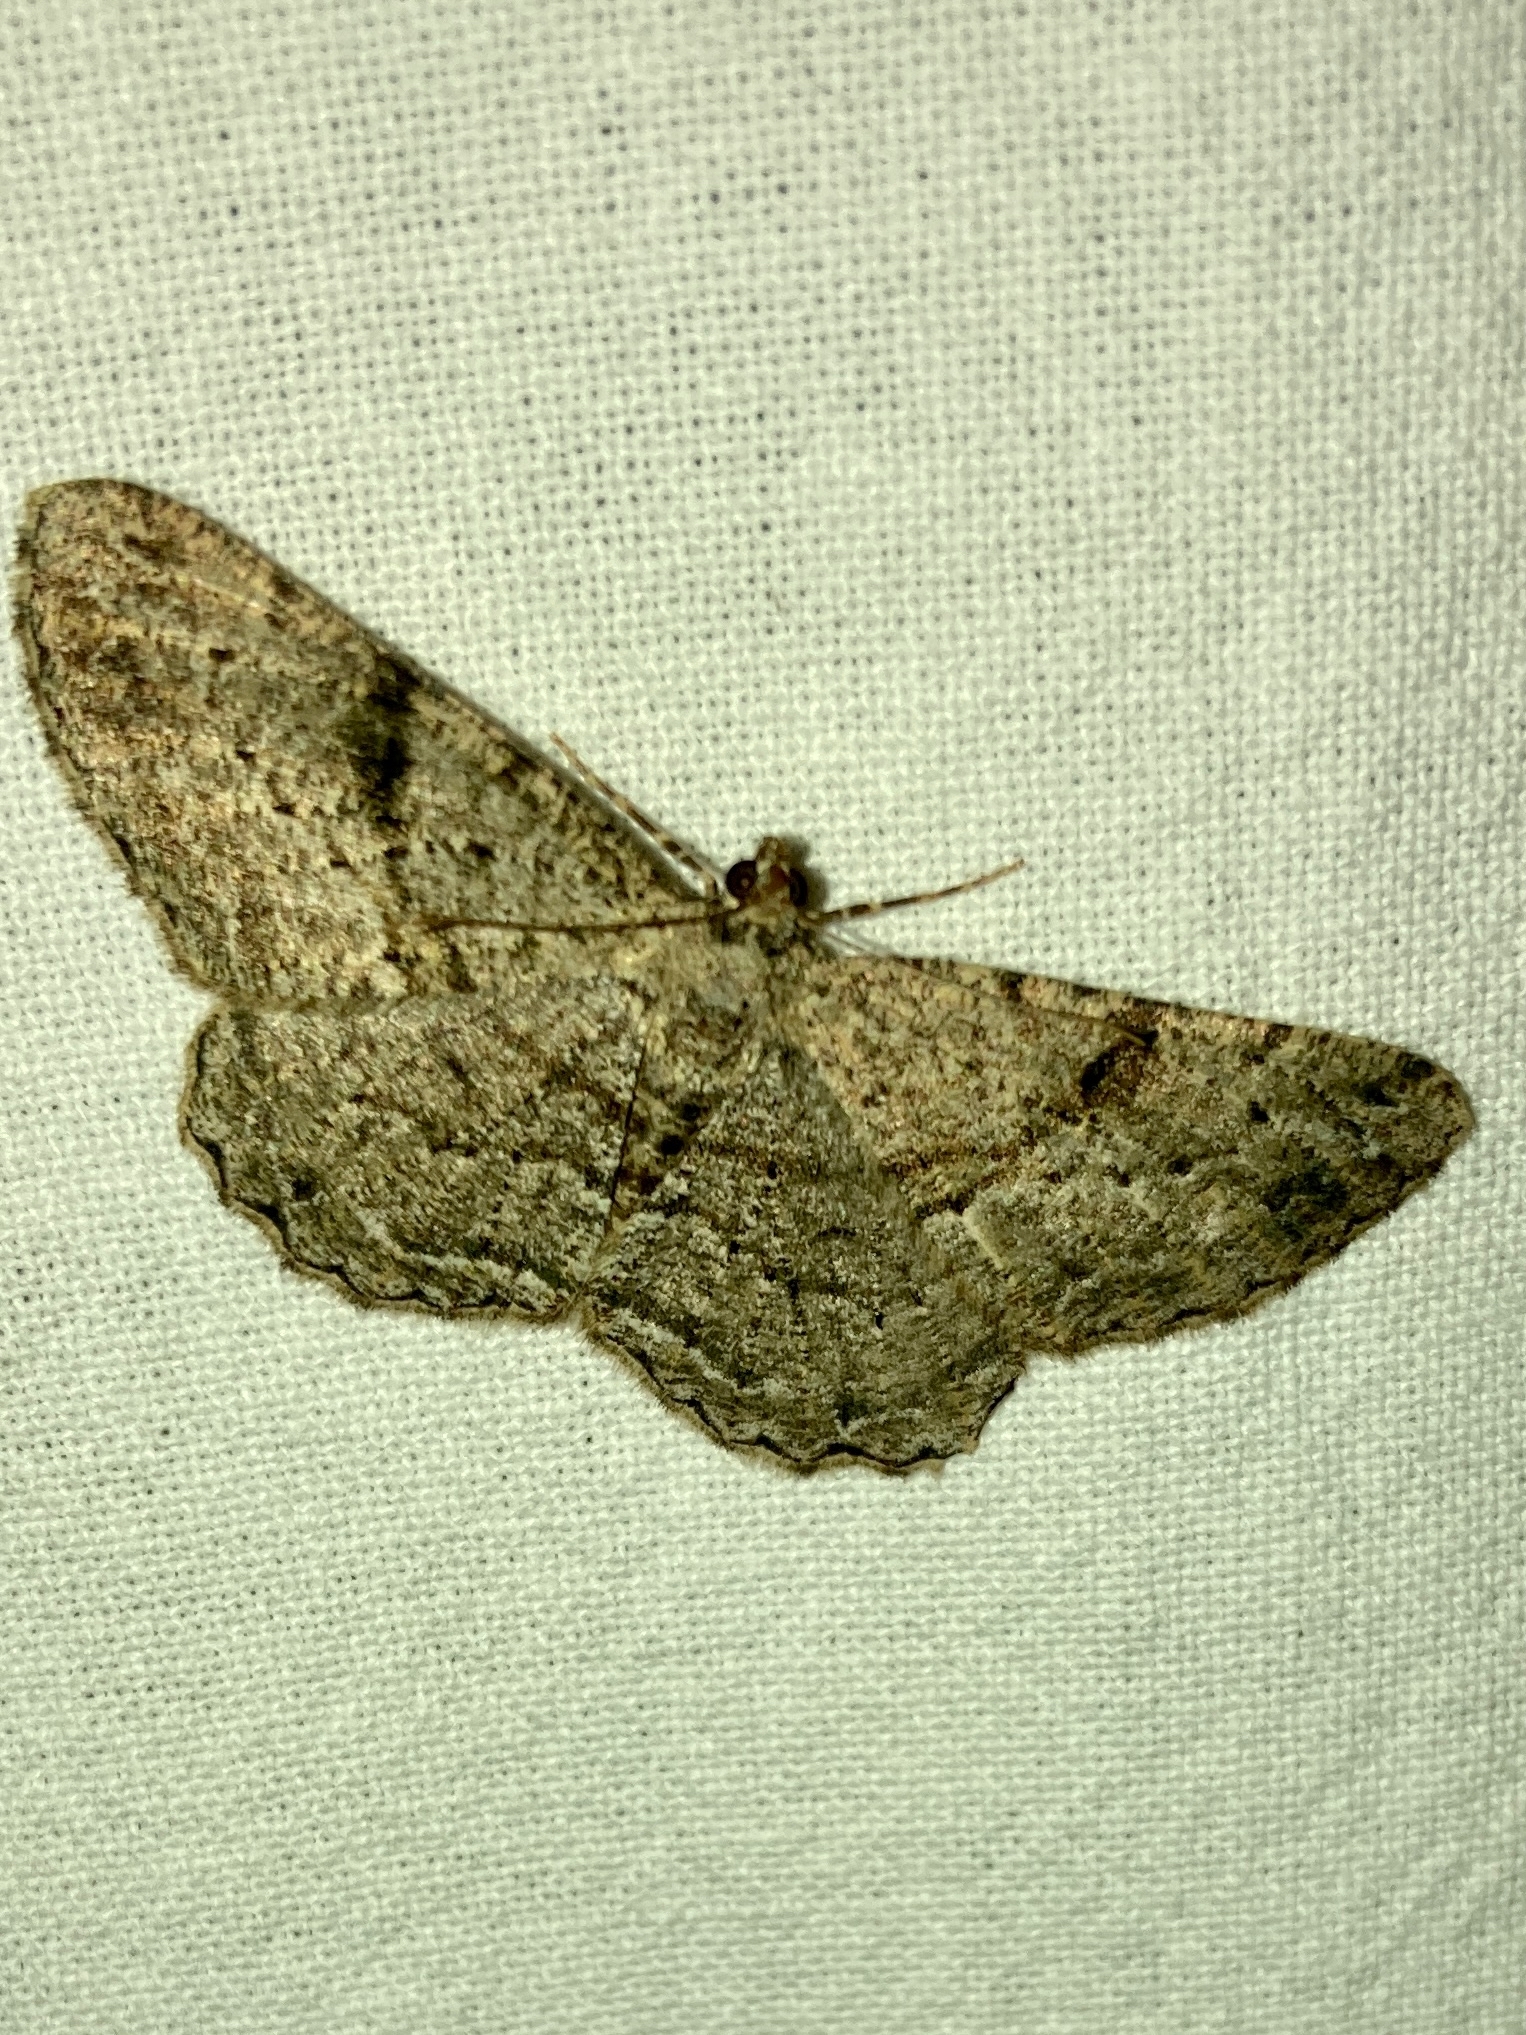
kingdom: Animalia
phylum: Arthropoda
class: Insecta
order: Lepidoptera
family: Geometridae
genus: Peribatodes
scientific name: Peribatodes rhomboidaria
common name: Willow beauty
